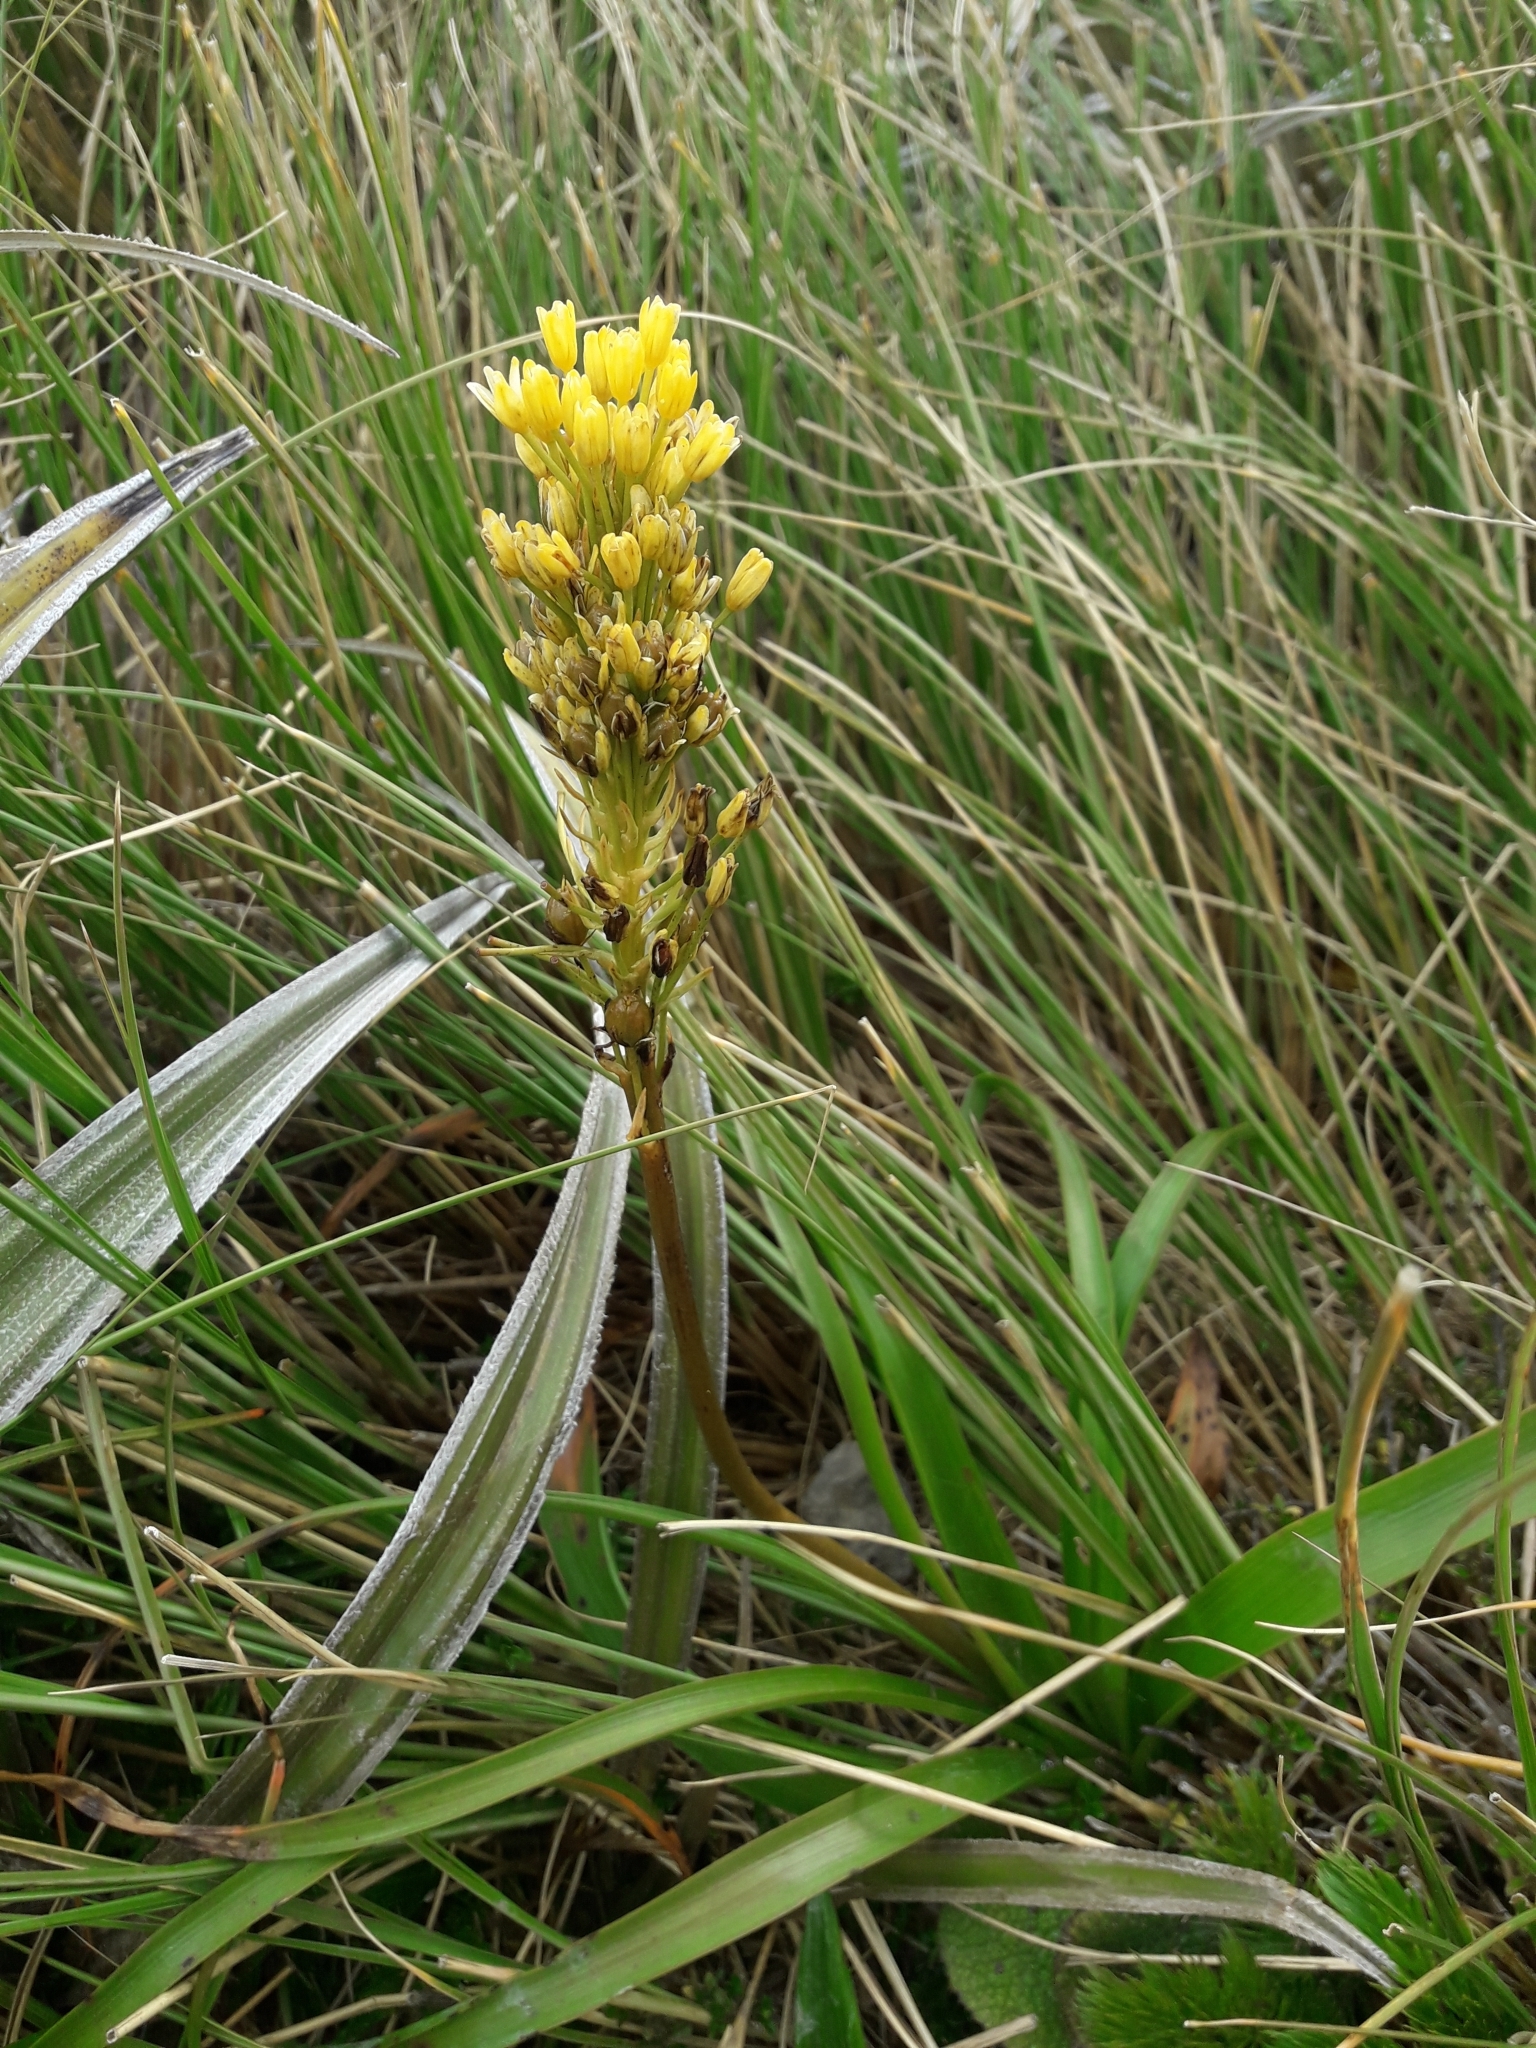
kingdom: Plantae
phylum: Tracheophyta
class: Liliopsida
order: Asparagales
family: Asphodelaceae
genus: Bulbinella
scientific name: Bulbinella gibbsii
